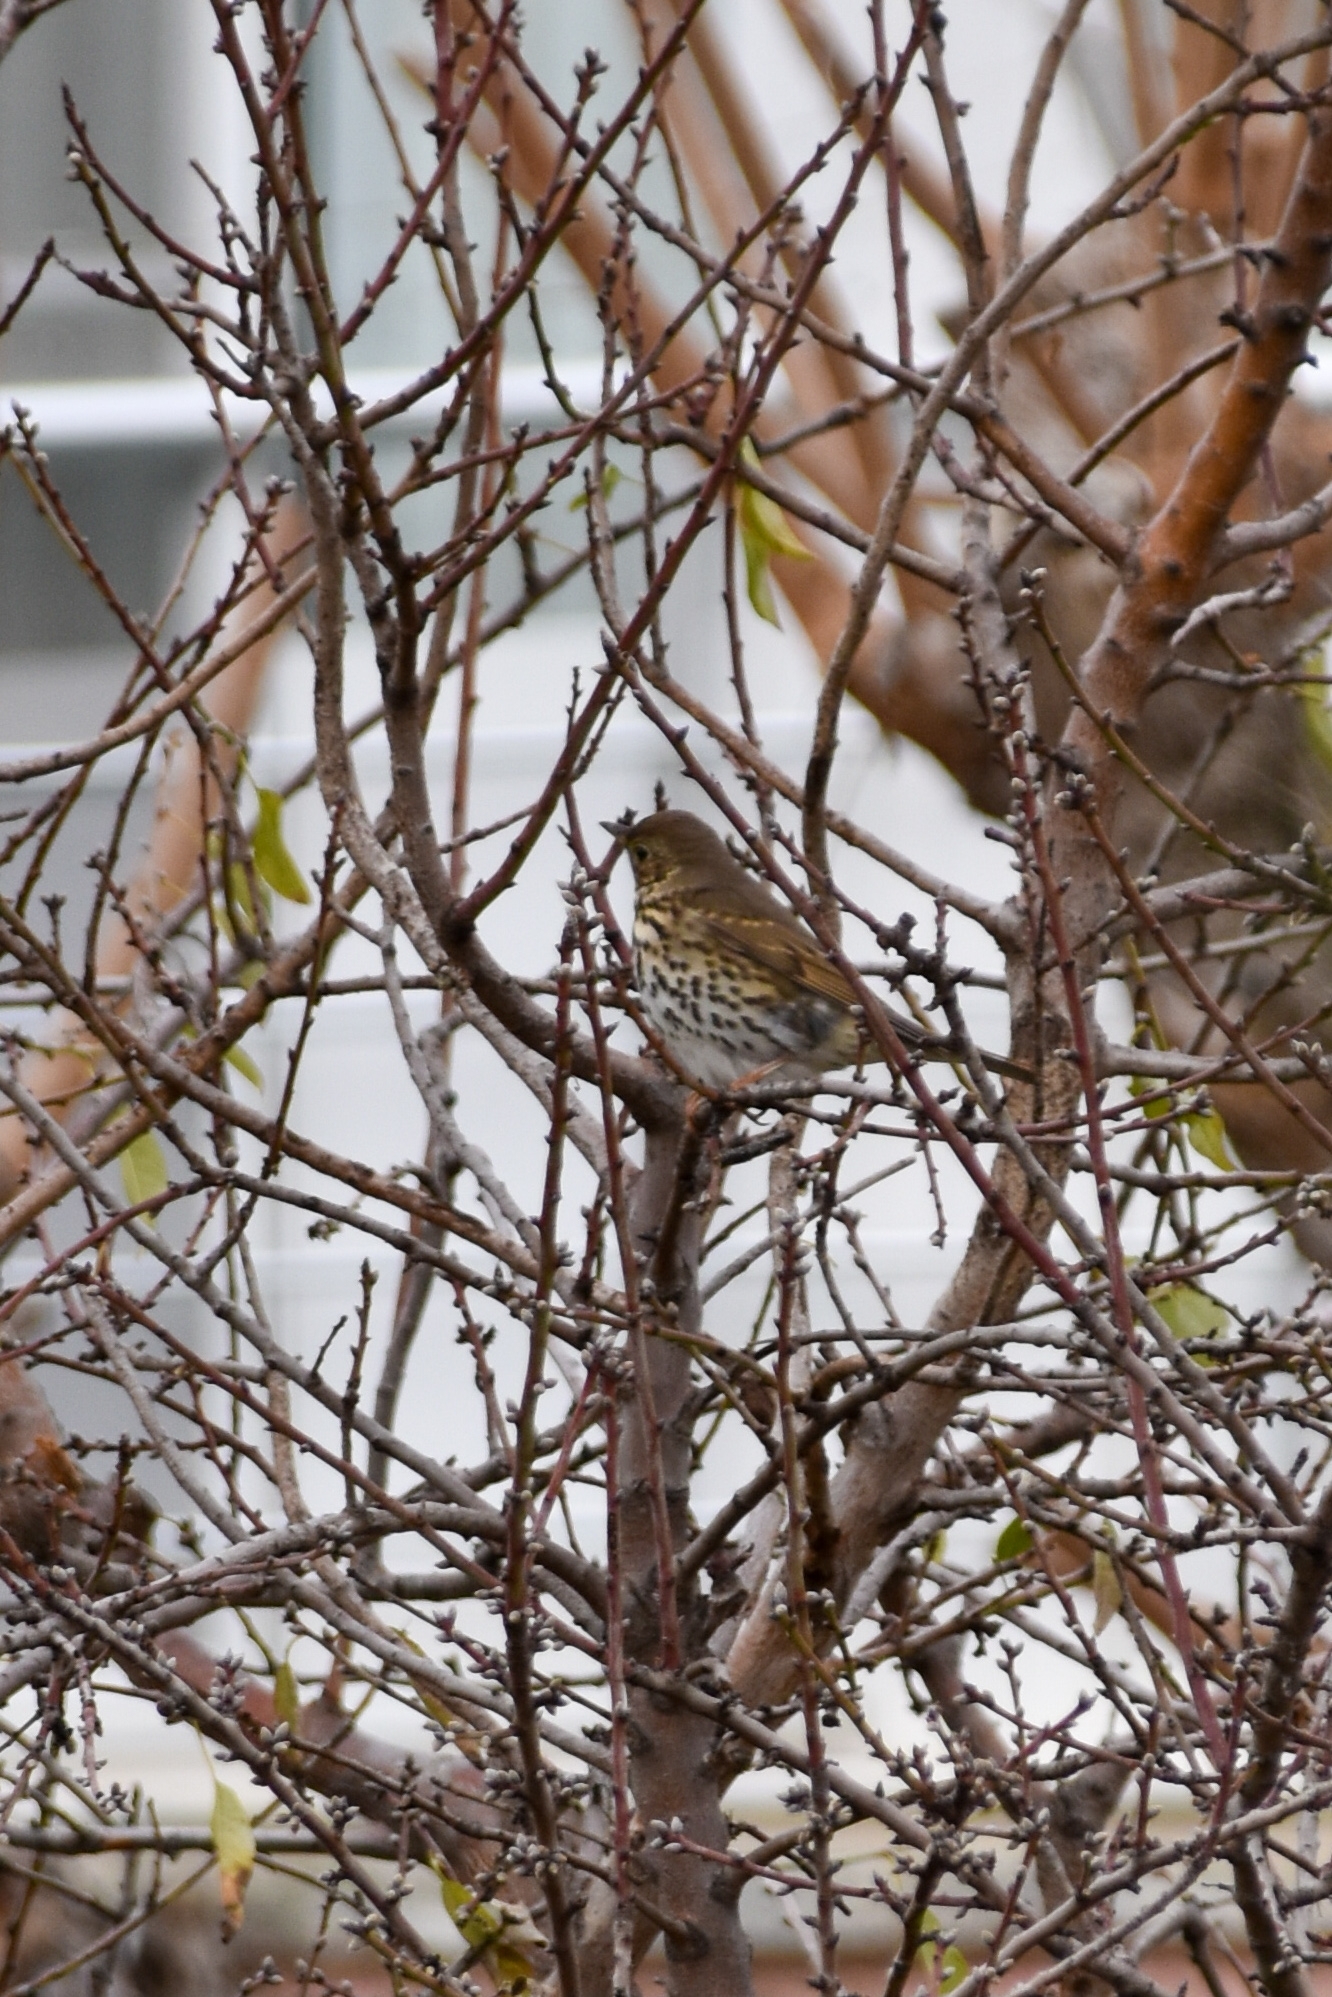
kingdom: Animalia
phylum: Chordata
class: Aves
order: Passeriformes
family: Turdidae
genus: Turdus
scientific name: Turdus philomelos
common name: Song thrush
